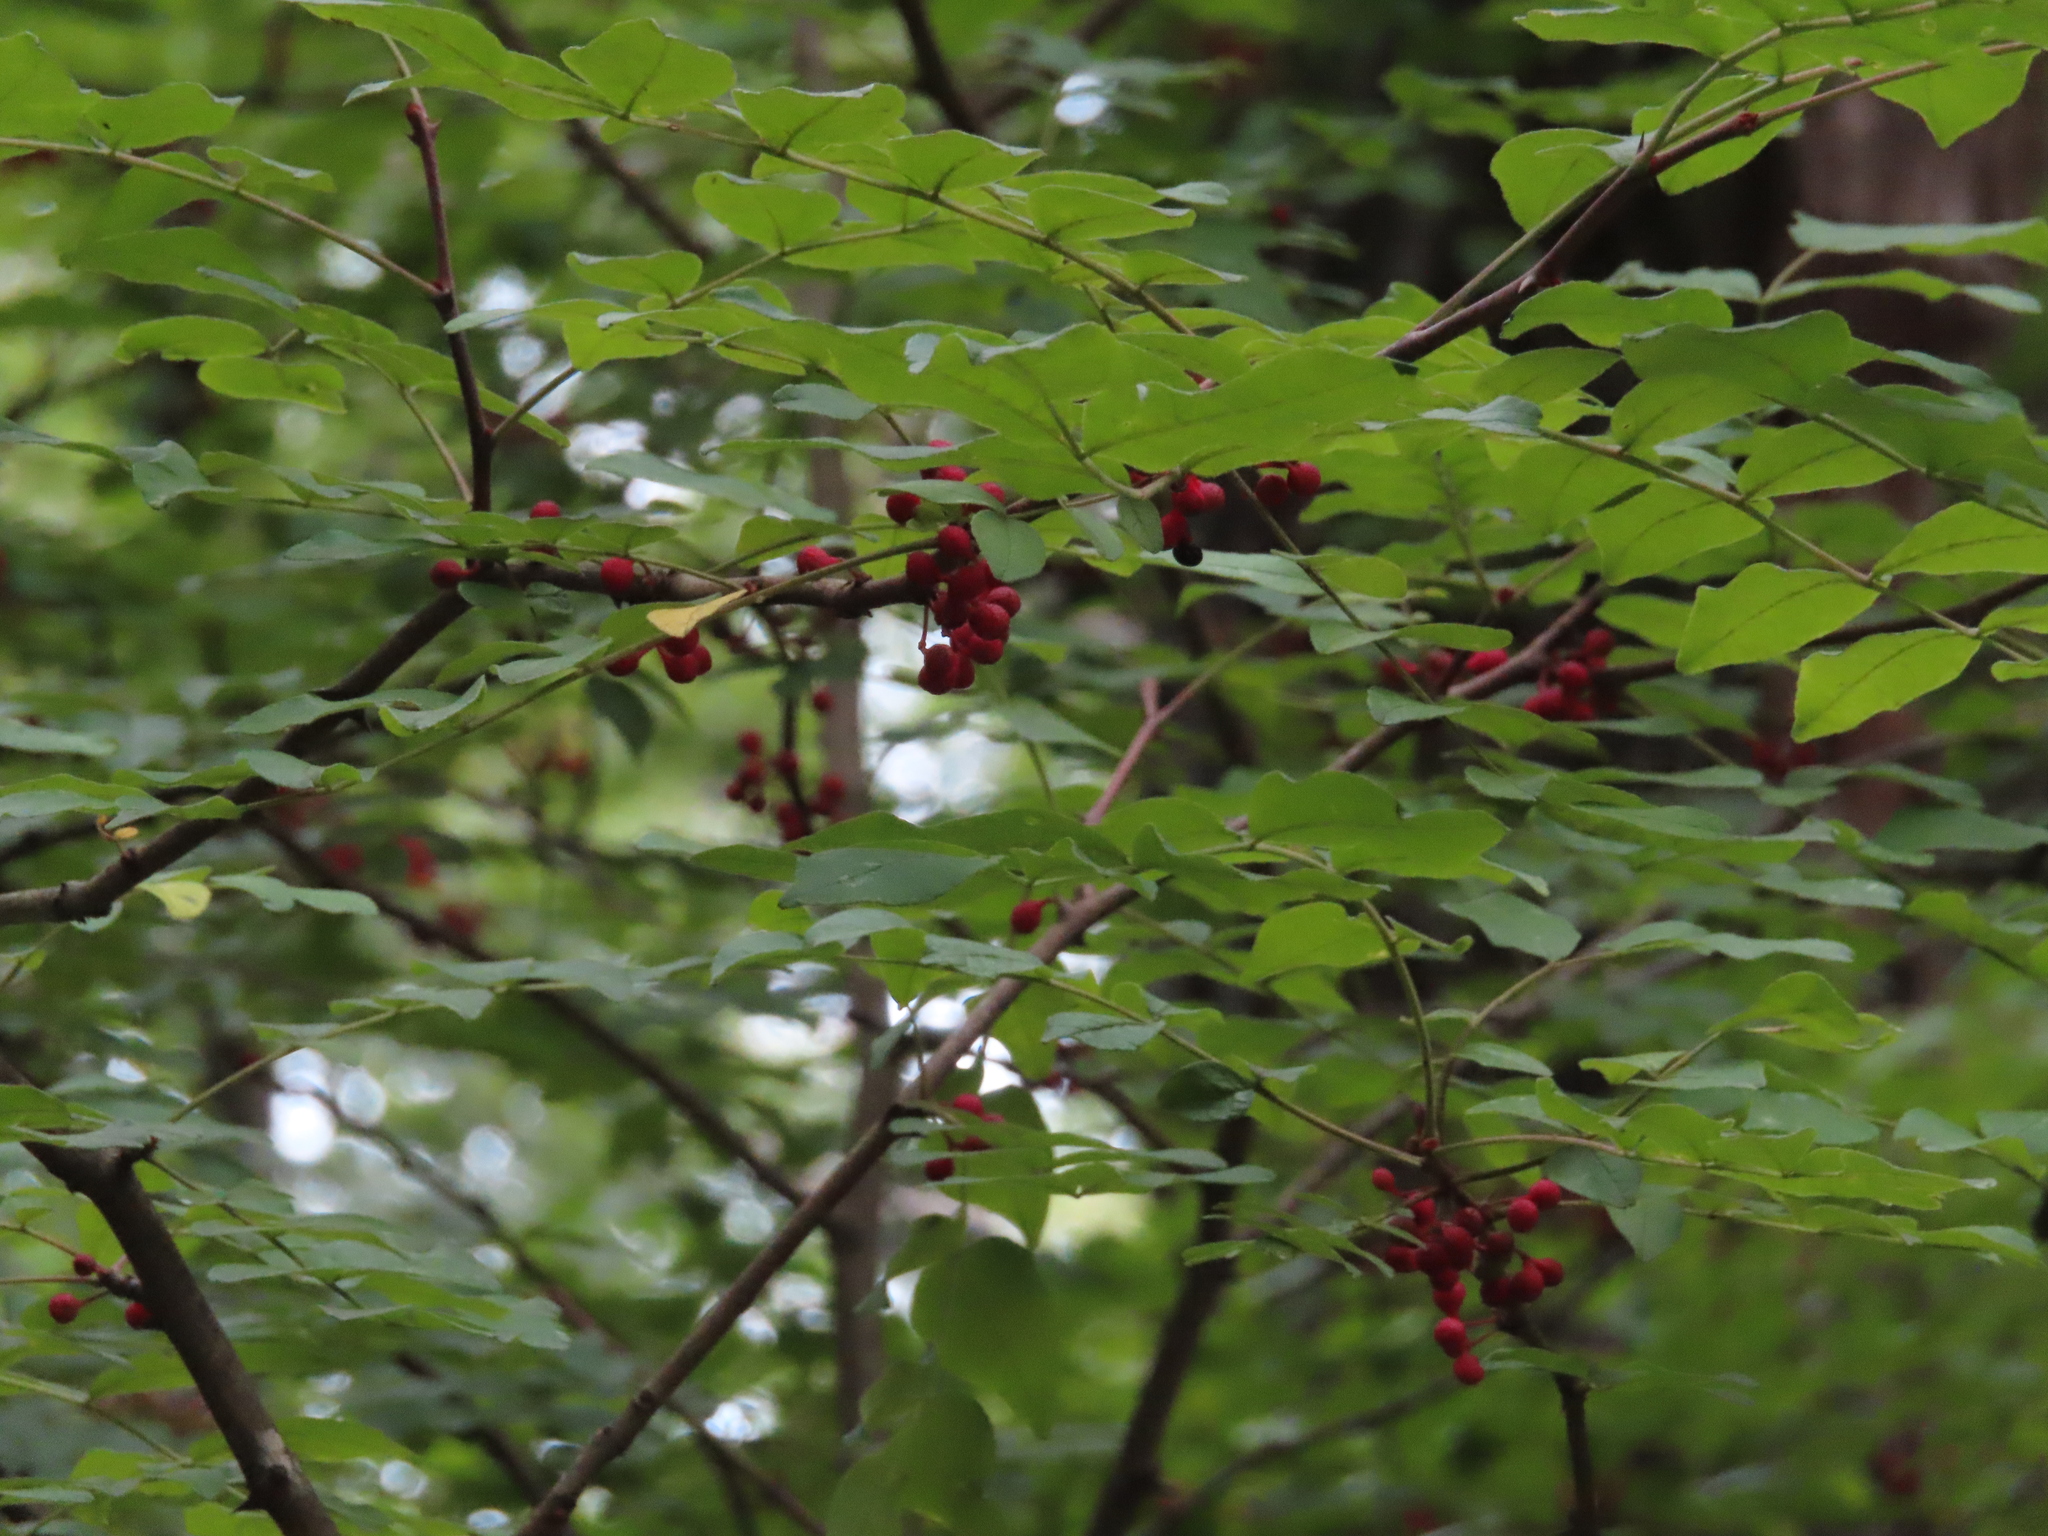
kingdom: Plantae
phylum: Tracheophyta
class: Magnoliopsida
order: Sapindales
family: Rutaceae
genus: Zanthoxylum
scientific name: Zanthoxylum americanum
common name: Northern prickly-ash
